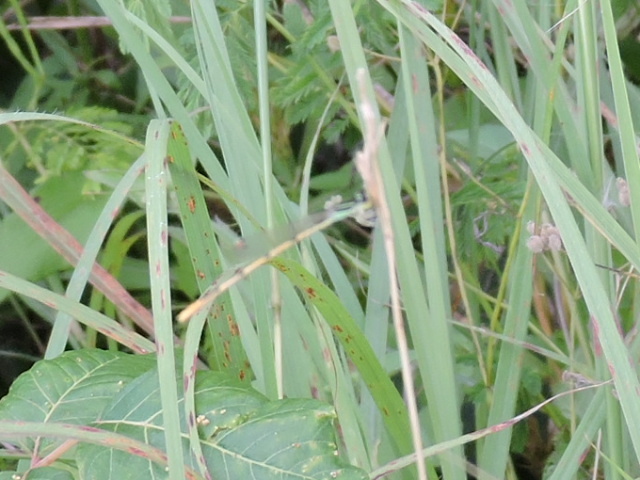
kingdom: Animalia
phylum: Arthropoda
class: Insecta
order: Odonata
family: Coenagrionidae
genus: Ischnura
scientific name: Ischnura hastata
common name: Citrine forktail
